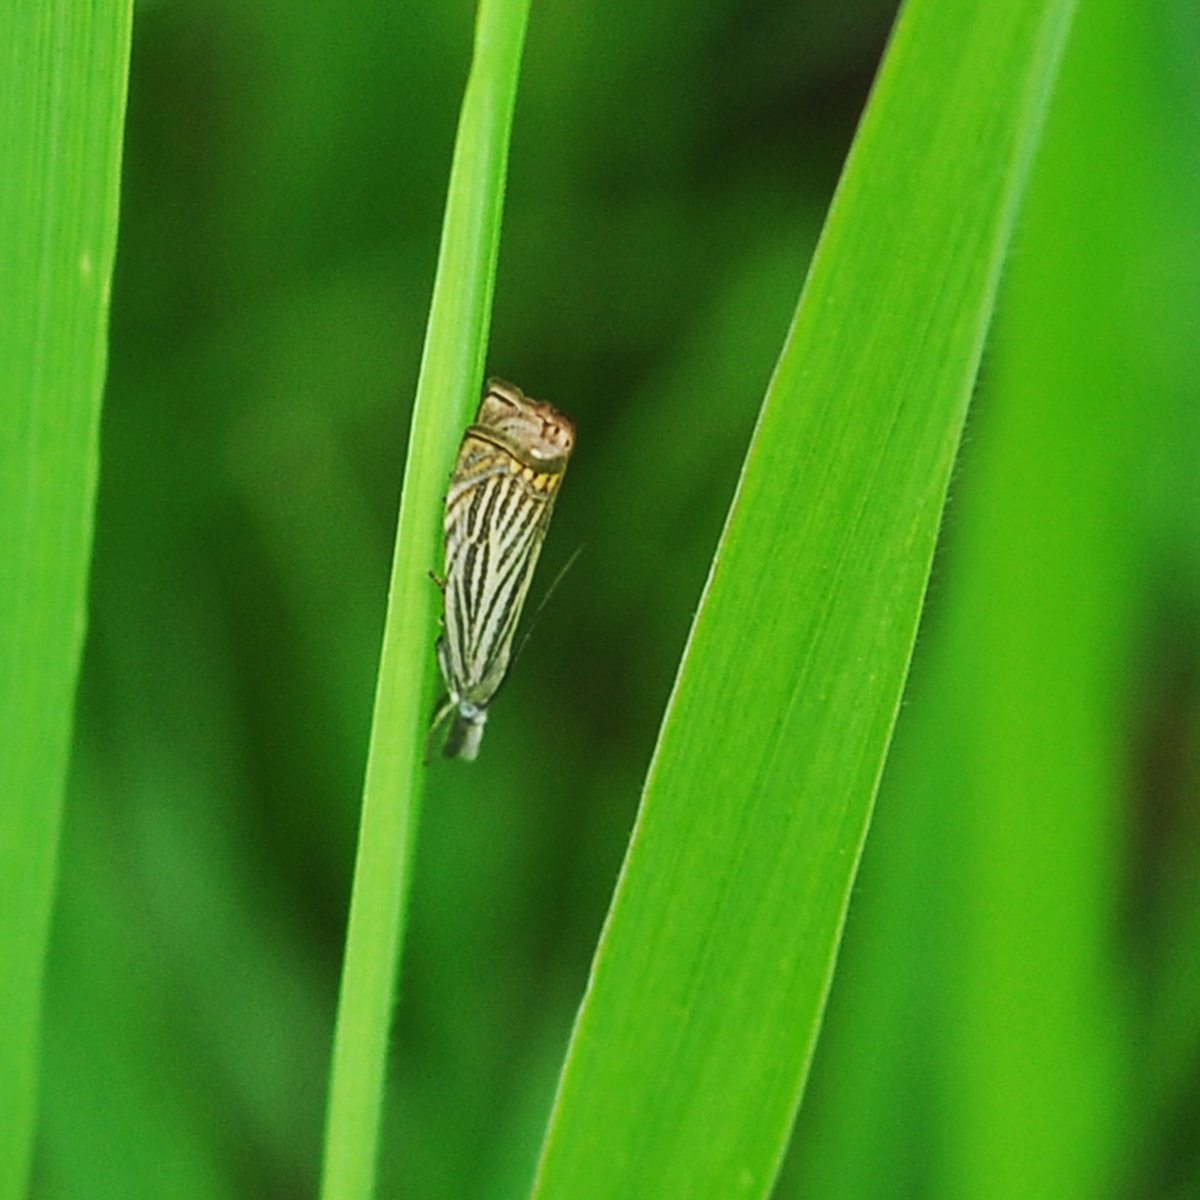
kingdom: Animalia
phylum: Arthropoda
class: Insecta
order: Lepidoptera
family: Crambidae
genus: Chrysoteuchia
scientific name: Chrysoteuchia culmella
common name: Garden grass-veneer
